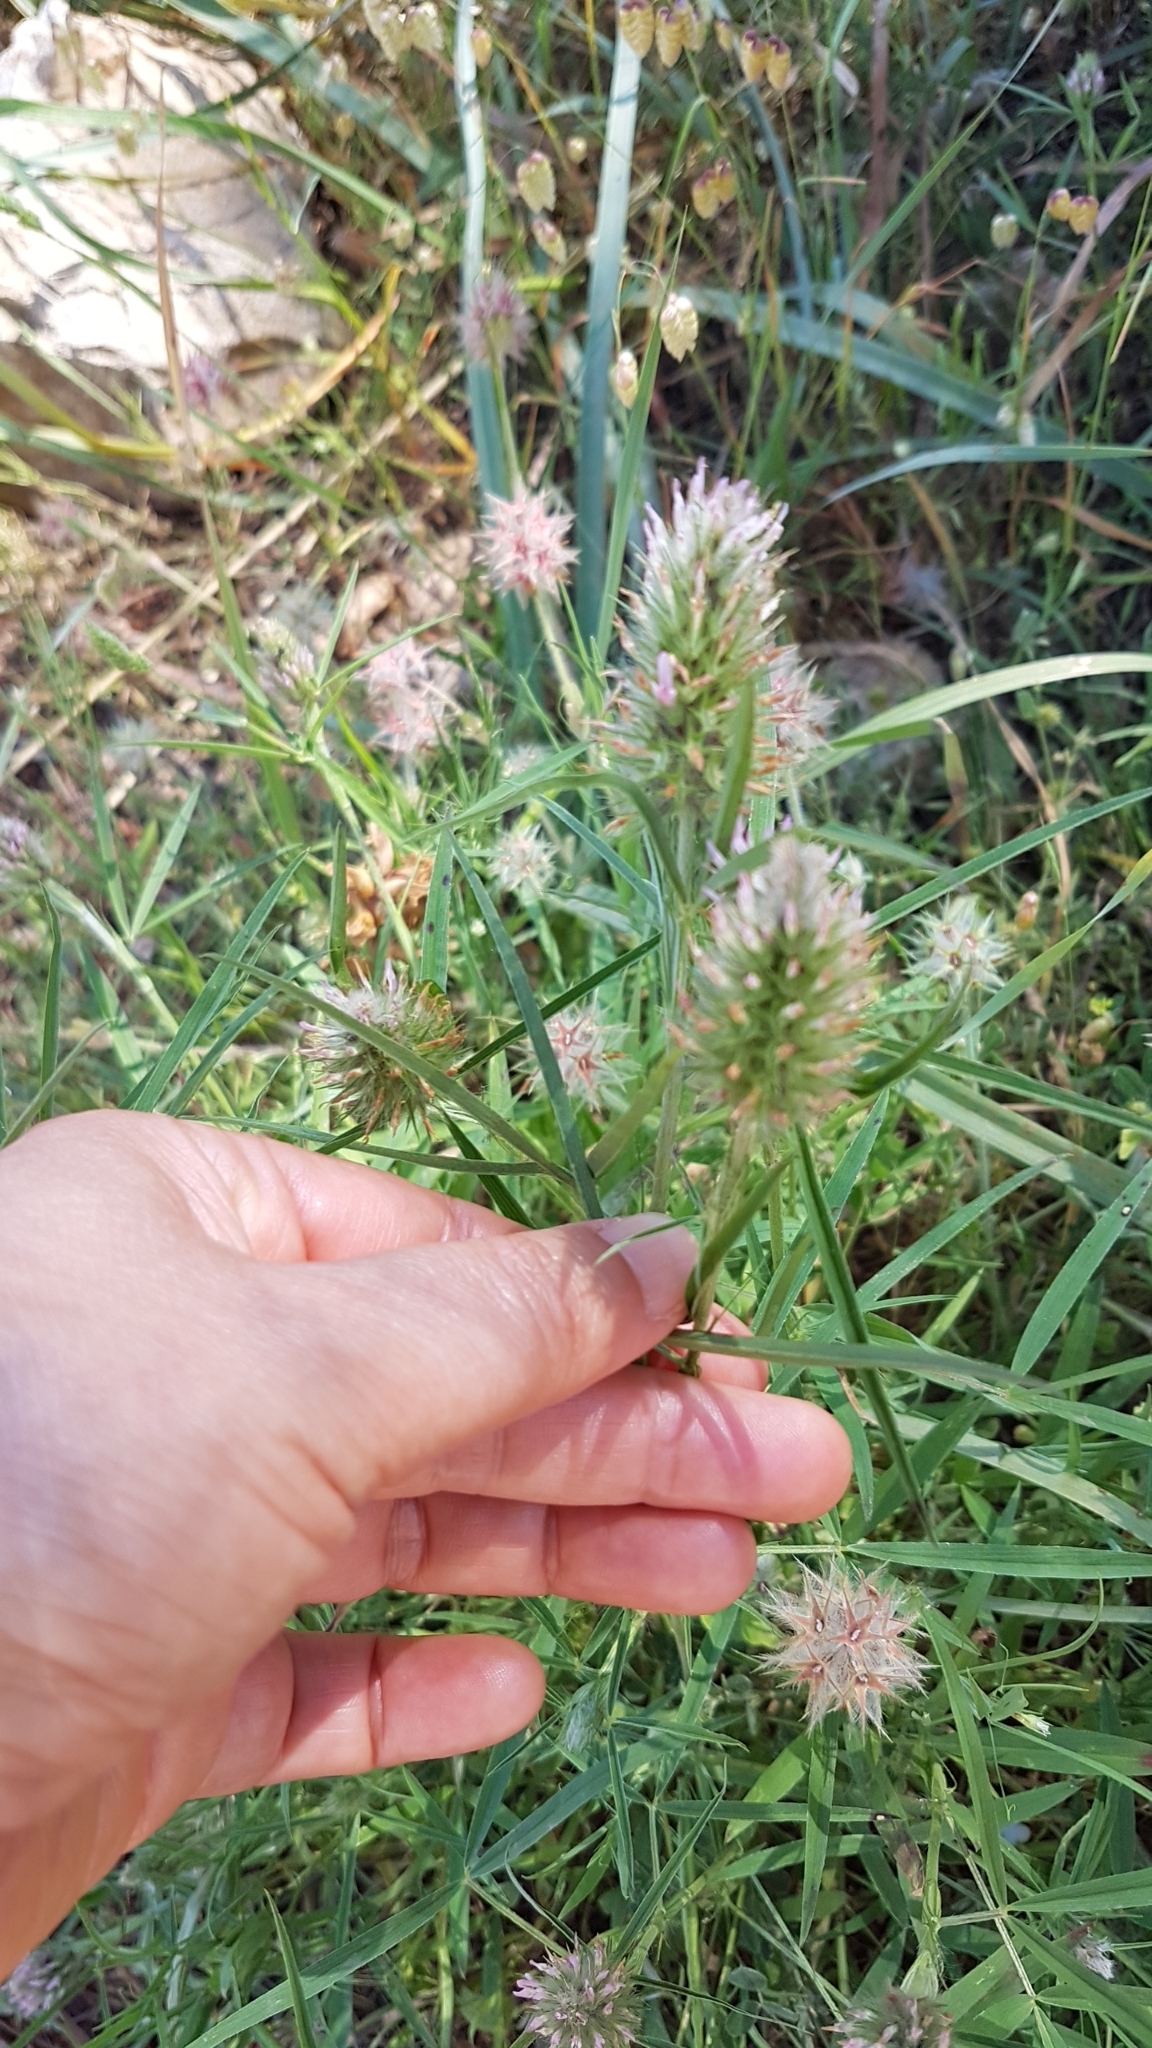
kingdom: Plantae
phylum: Tracheophyta
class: Magnoliopsida
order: Fabales
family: Fabaceae
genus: Trifolium
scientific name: Trifolium angustifolium
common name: Narrow clover
